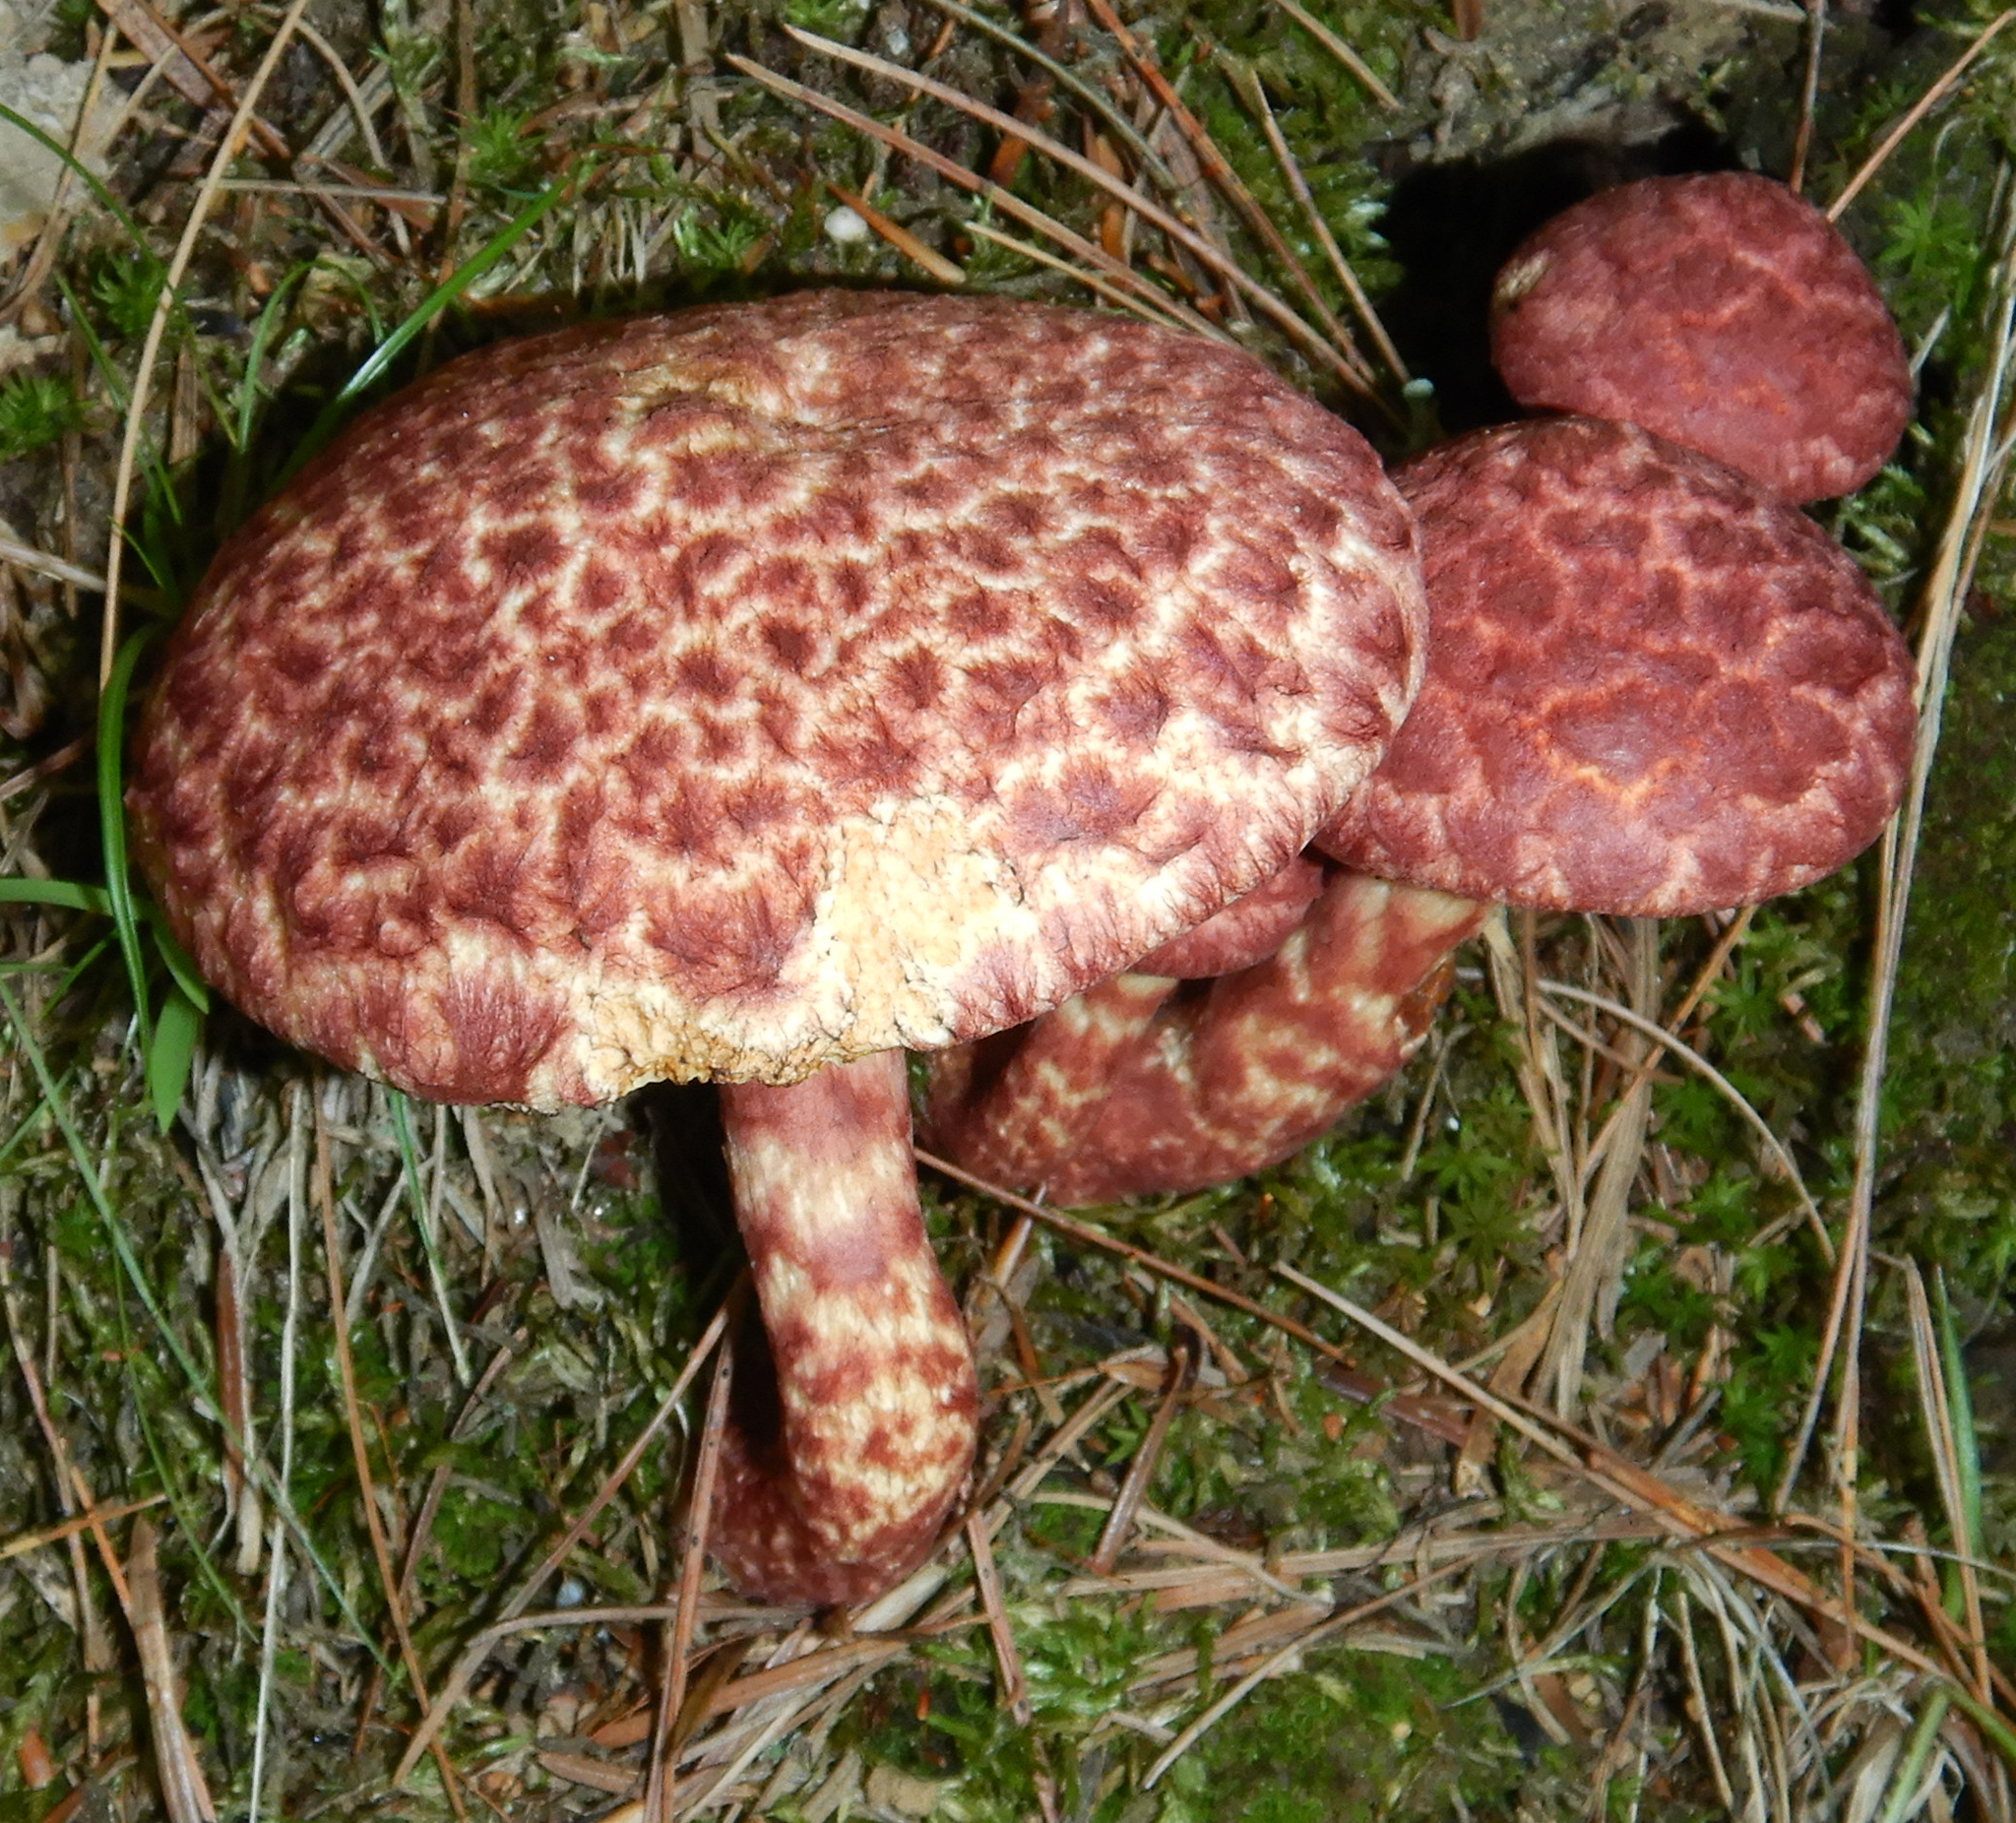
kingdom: Fungi
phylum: Basidiomycota
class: Agaricomycetes
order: Boletales
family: Suillaceae
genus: Suillus
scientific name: Suillus spraguei
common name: Painted suillus
